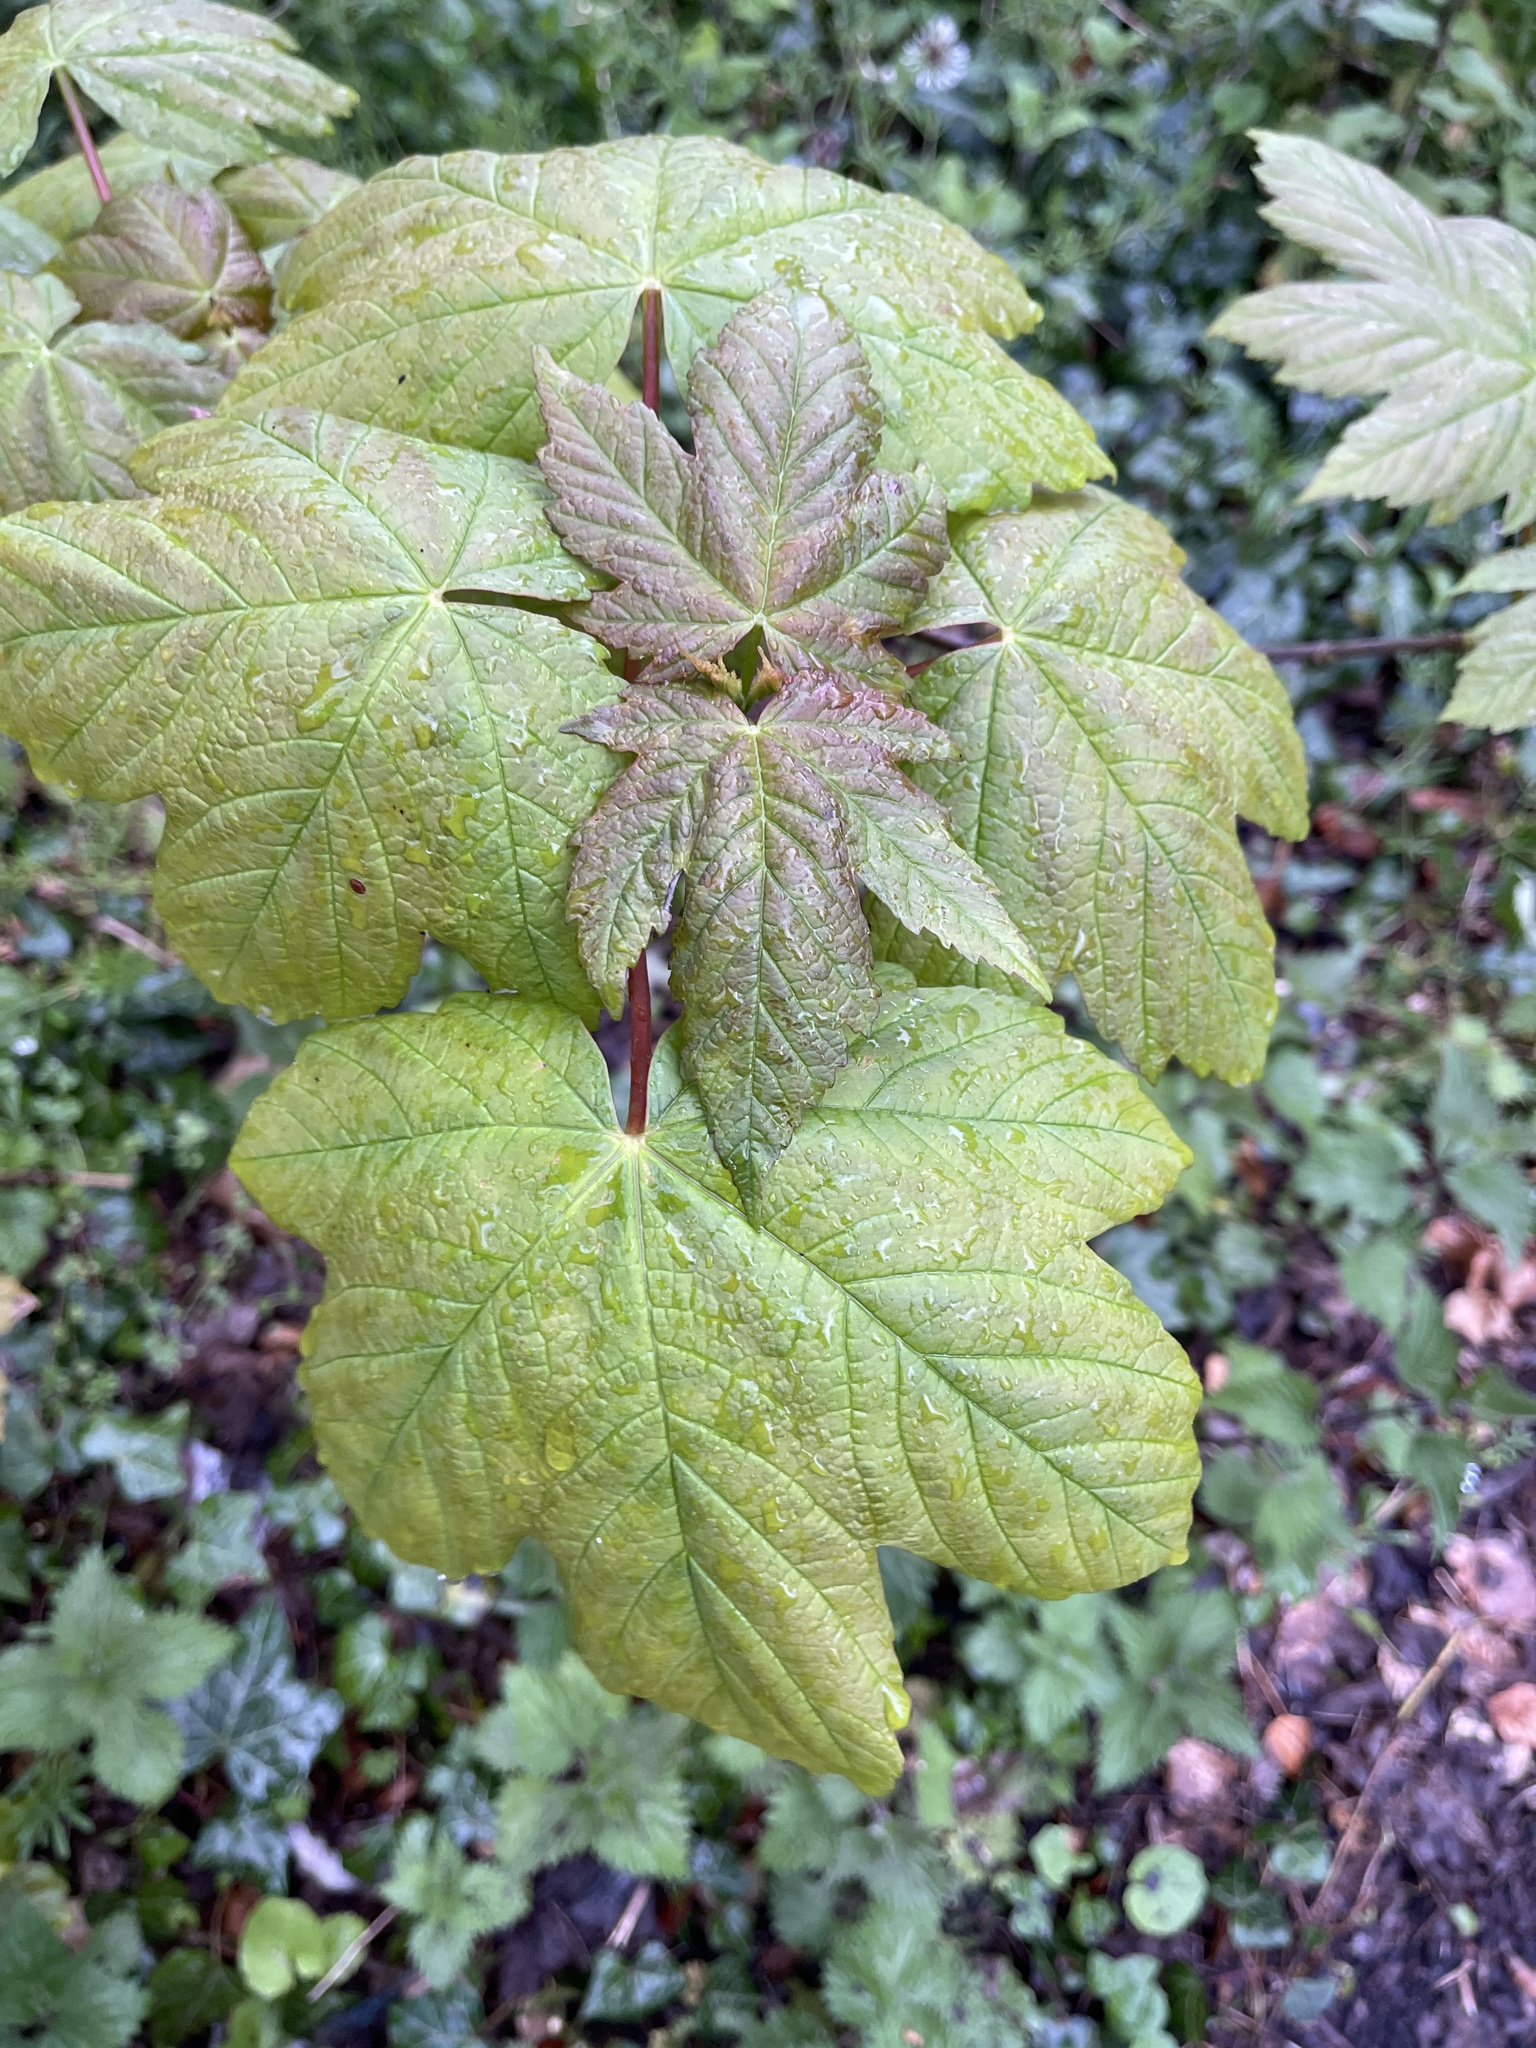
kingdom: Plantae
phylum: Tracheophyta
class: Magnoliopsida
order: Sapindales
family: Sapindaceae
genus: Acer
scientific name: Acer pseudoplatanus
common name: Sycamore
